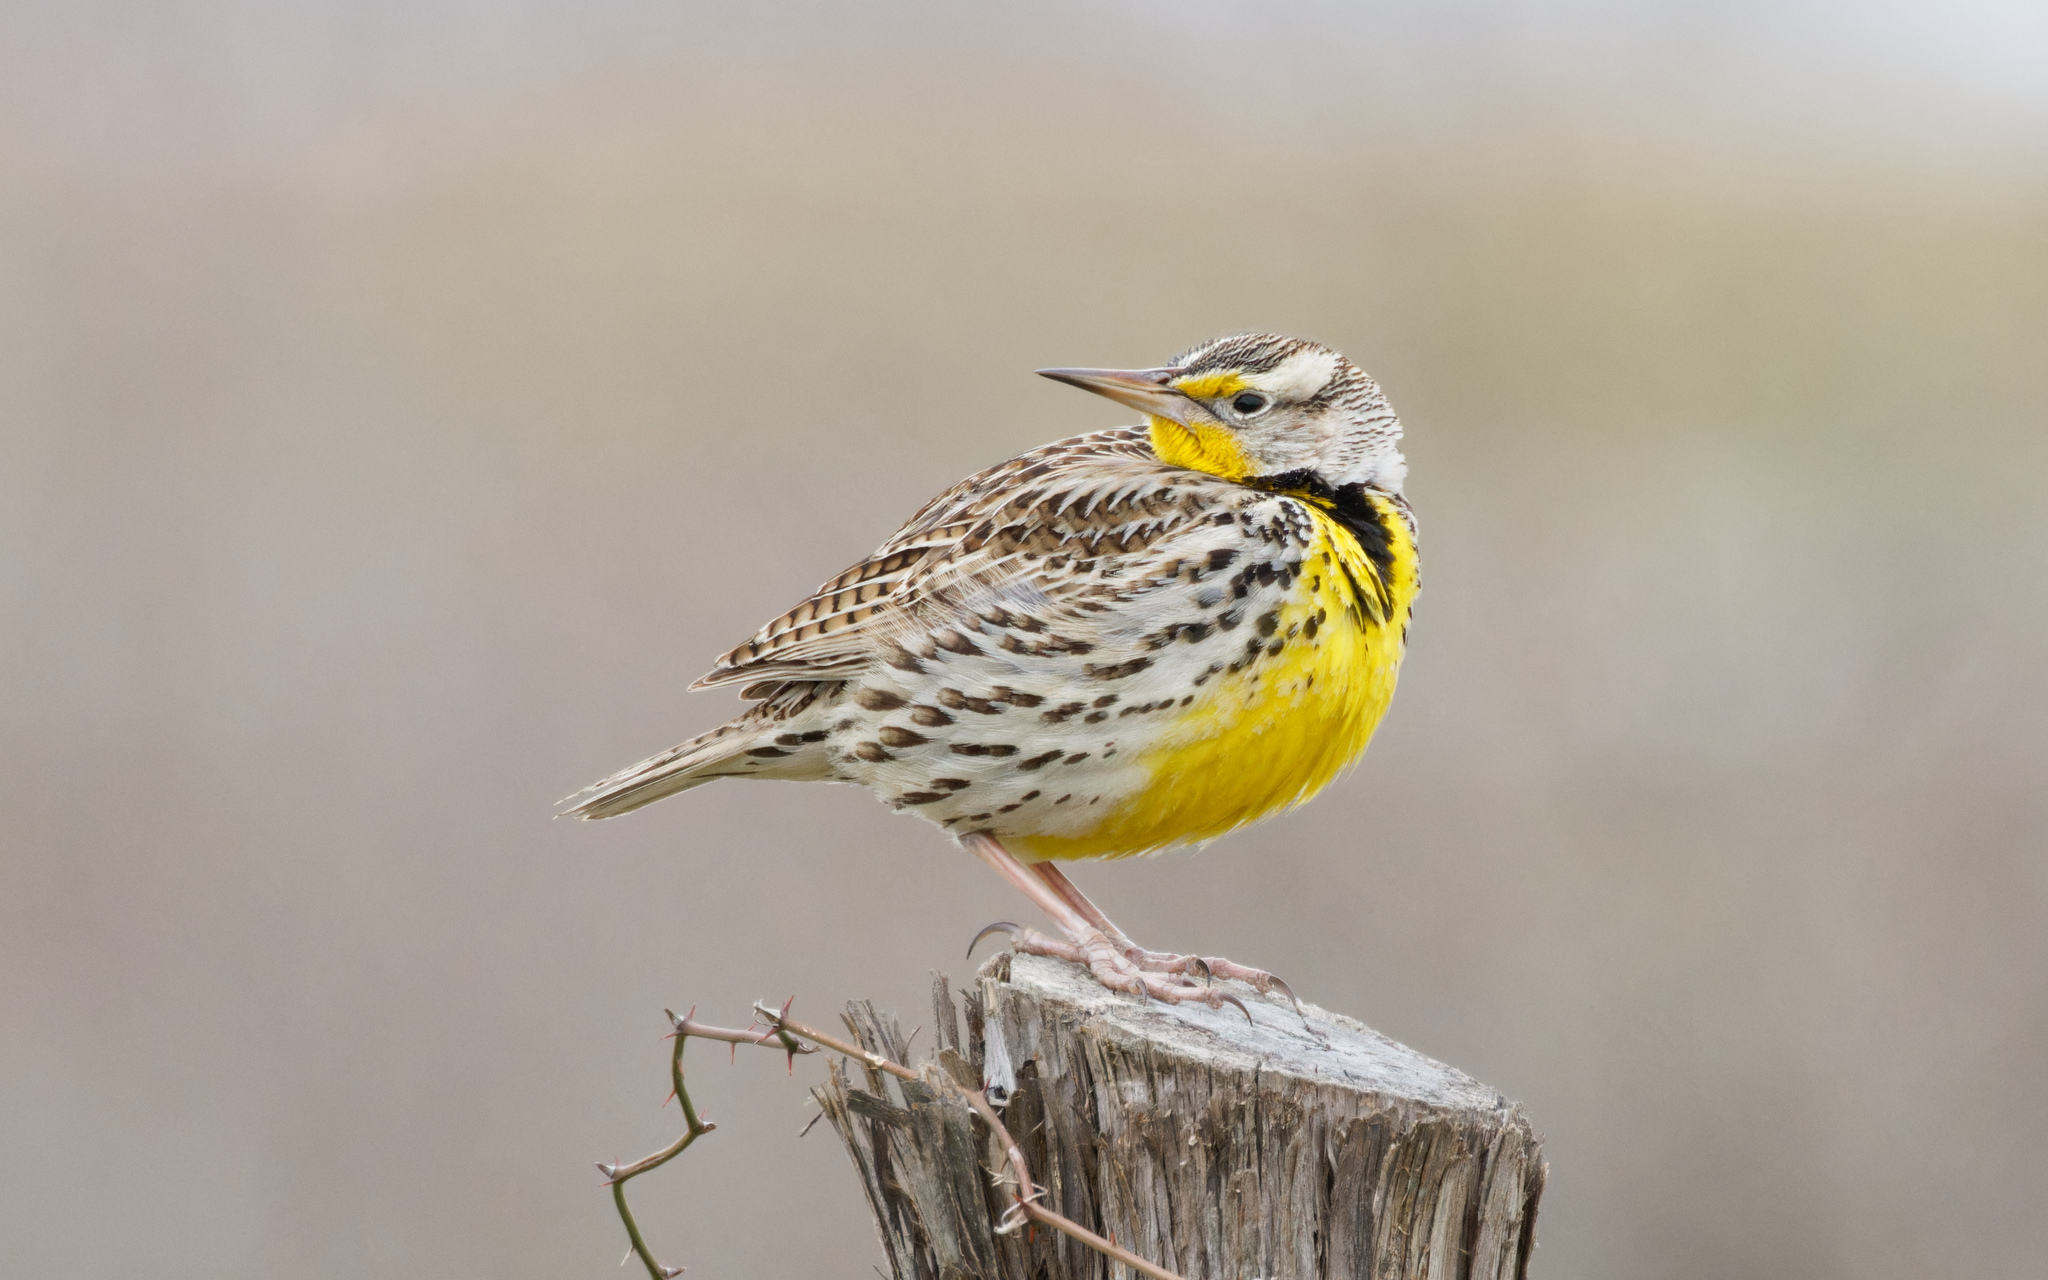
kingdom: Animalia
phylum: Chordata
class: Aves
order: Passeriformes
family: Icteridae
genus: Sturnella
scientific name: Sturnella neglecta
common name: Western meadowlark
